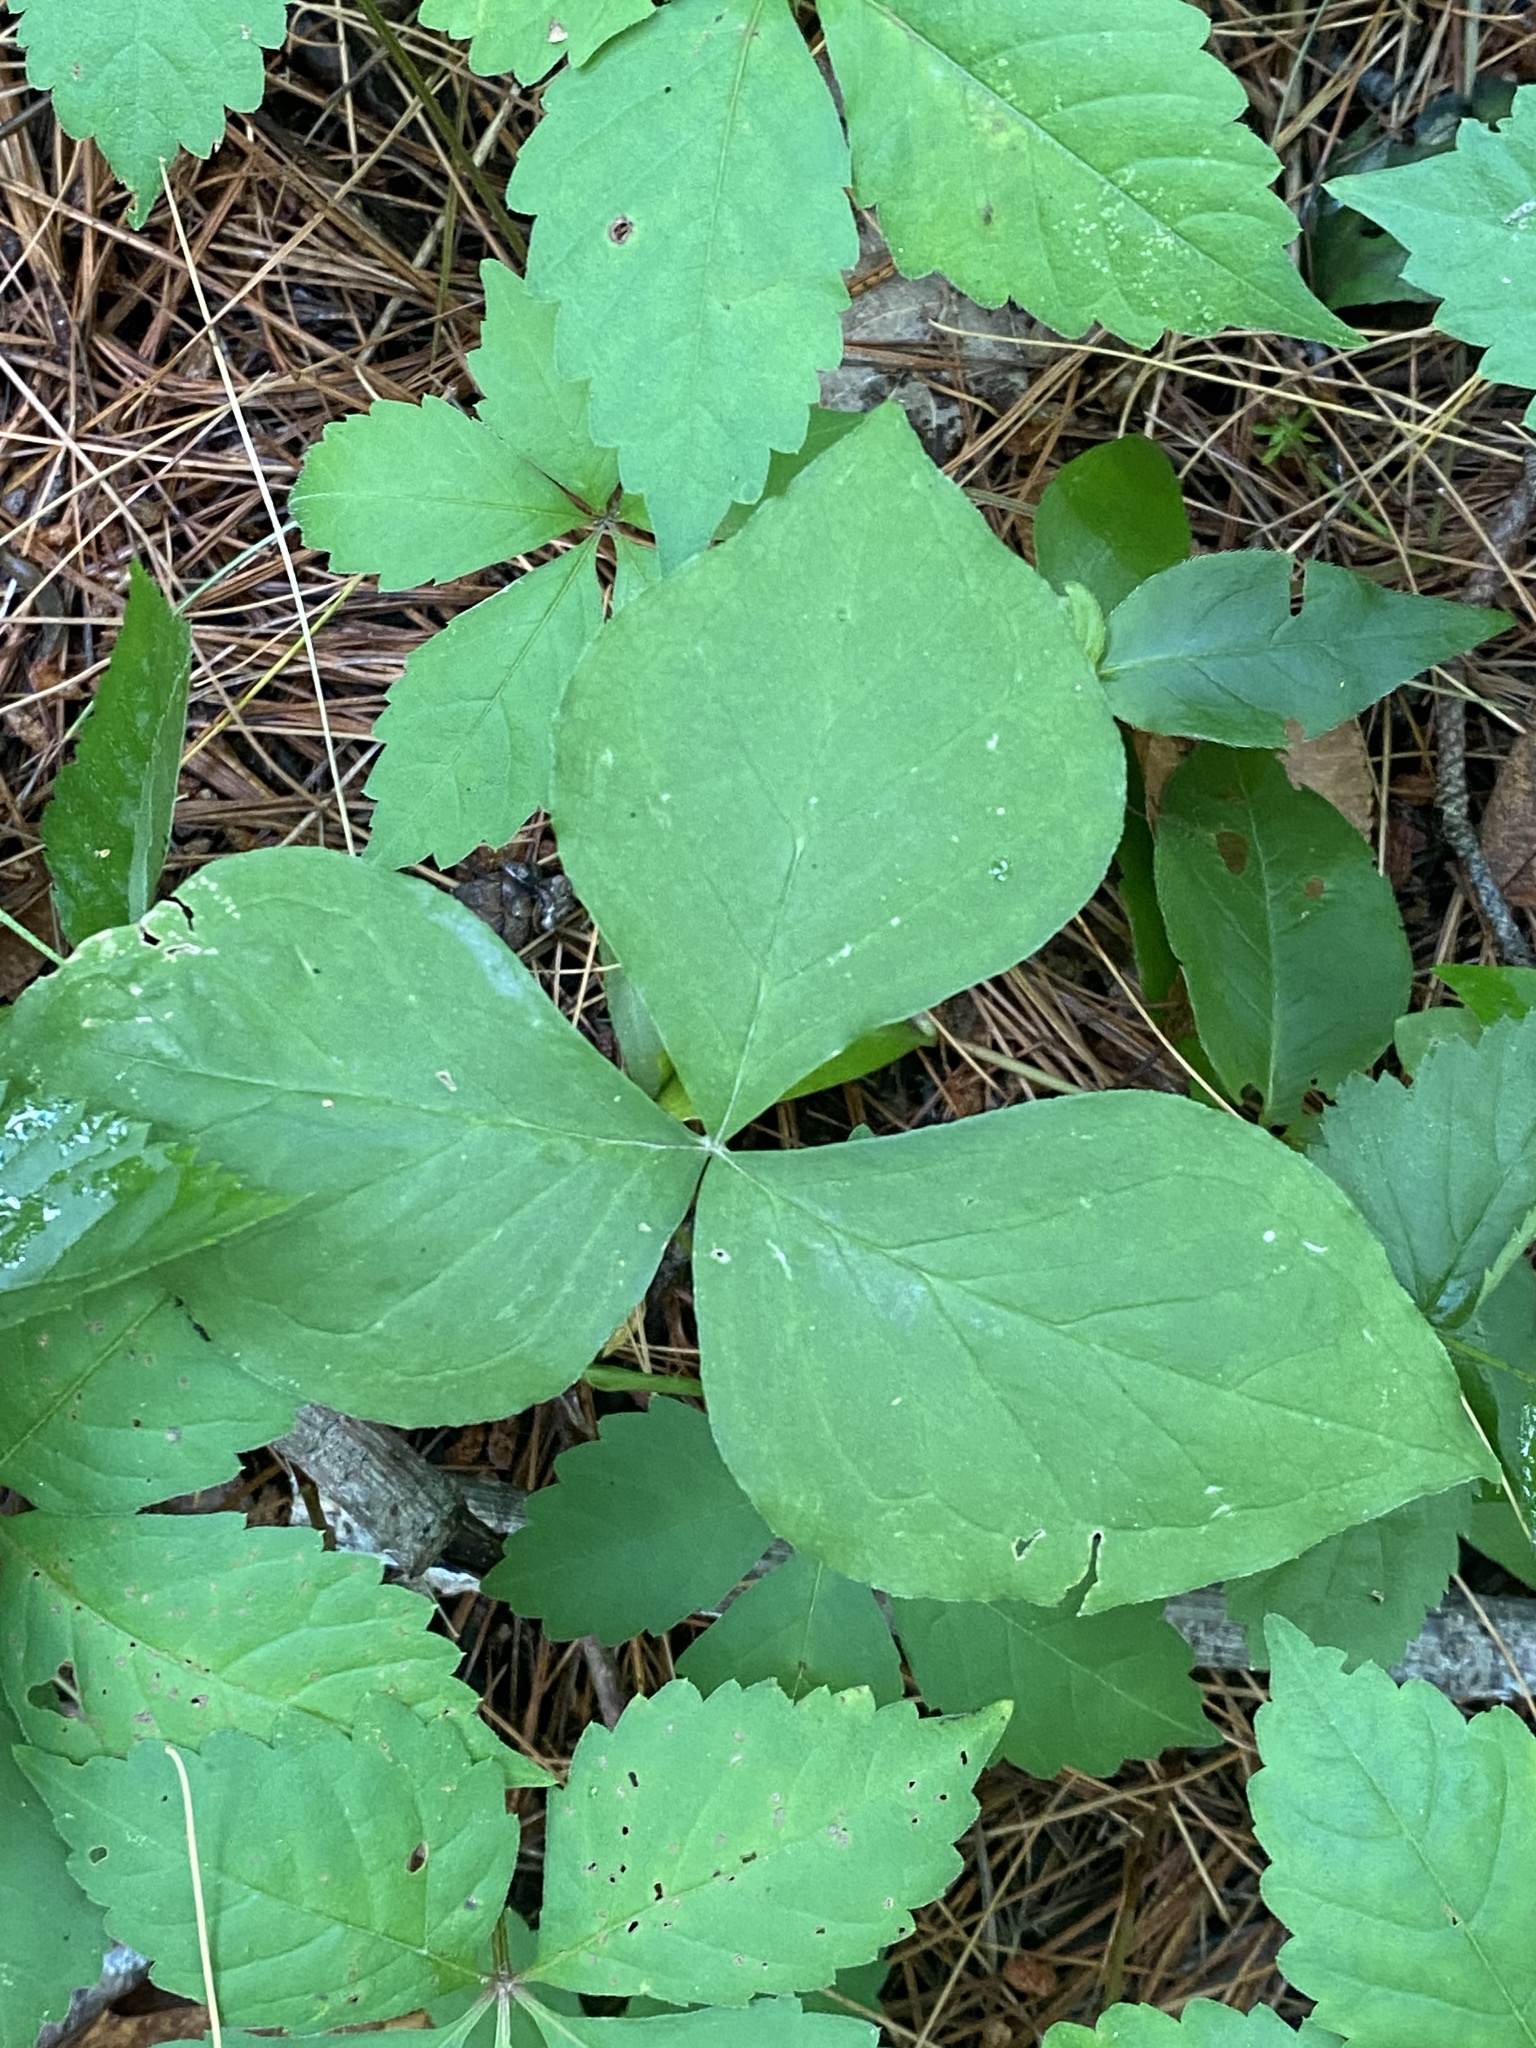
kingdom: Plantae
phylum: Tracheophyta
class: Liliopsida
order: Alismatales
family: Araceae
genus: Arisaema
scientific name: Arisaema triphyllum
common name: Jack-in-the-pulpit
